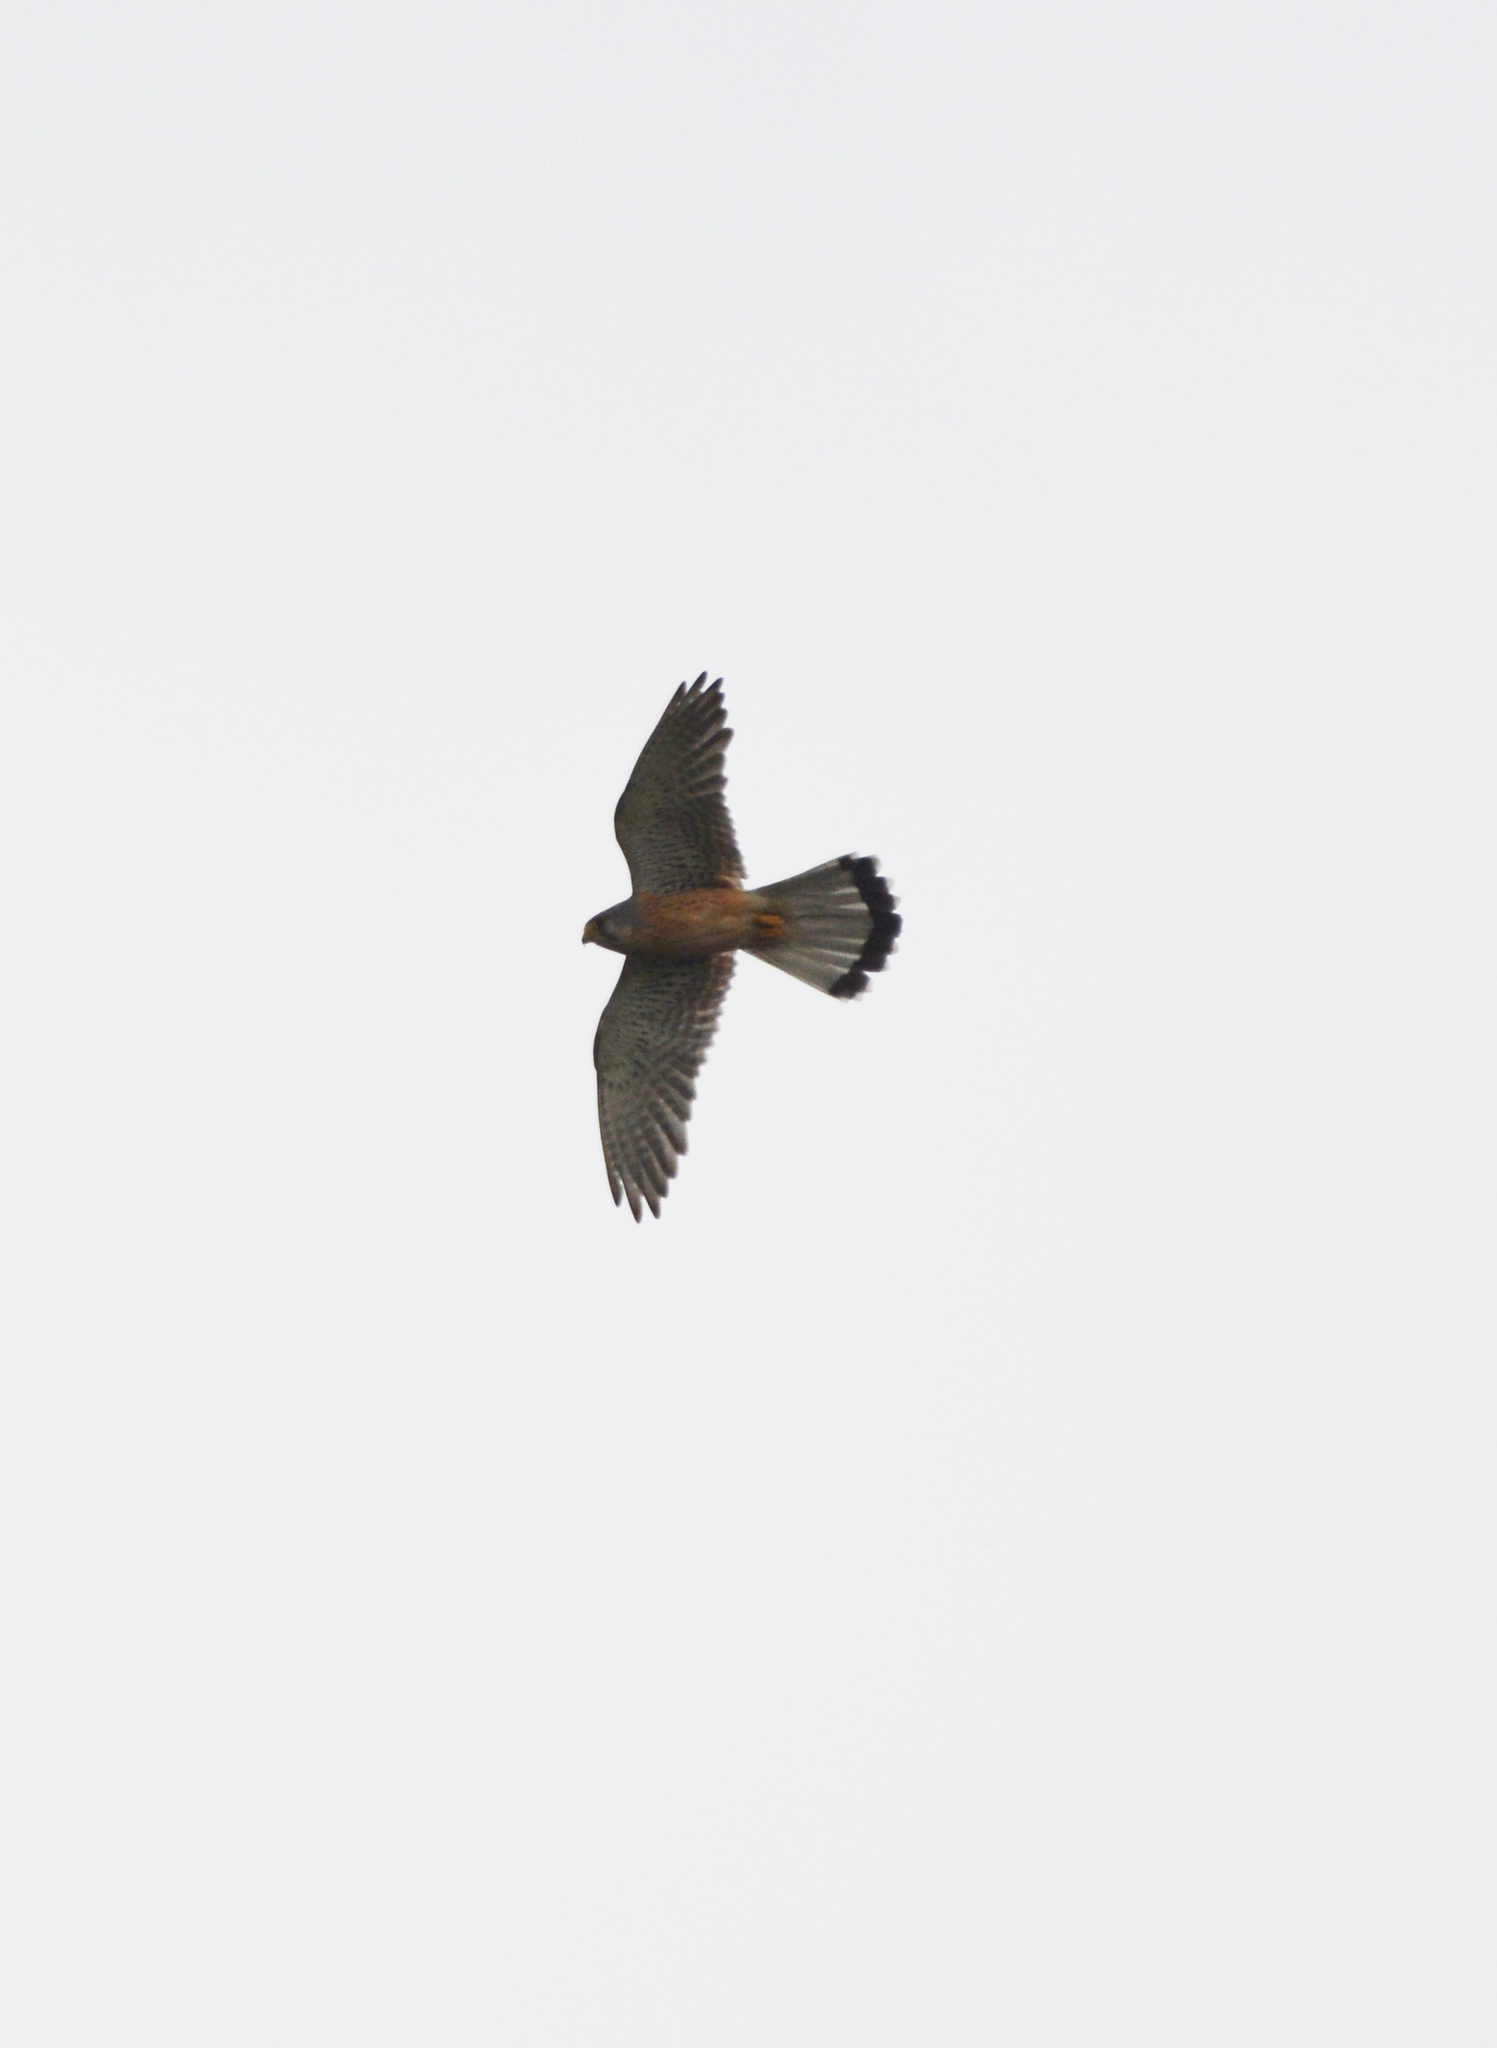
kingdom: Animalia
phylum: Chordata
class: Aves
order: Falconiformes
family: Falconidae
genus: Falco
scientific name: Falco tinnunculus
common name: Common kestrel
